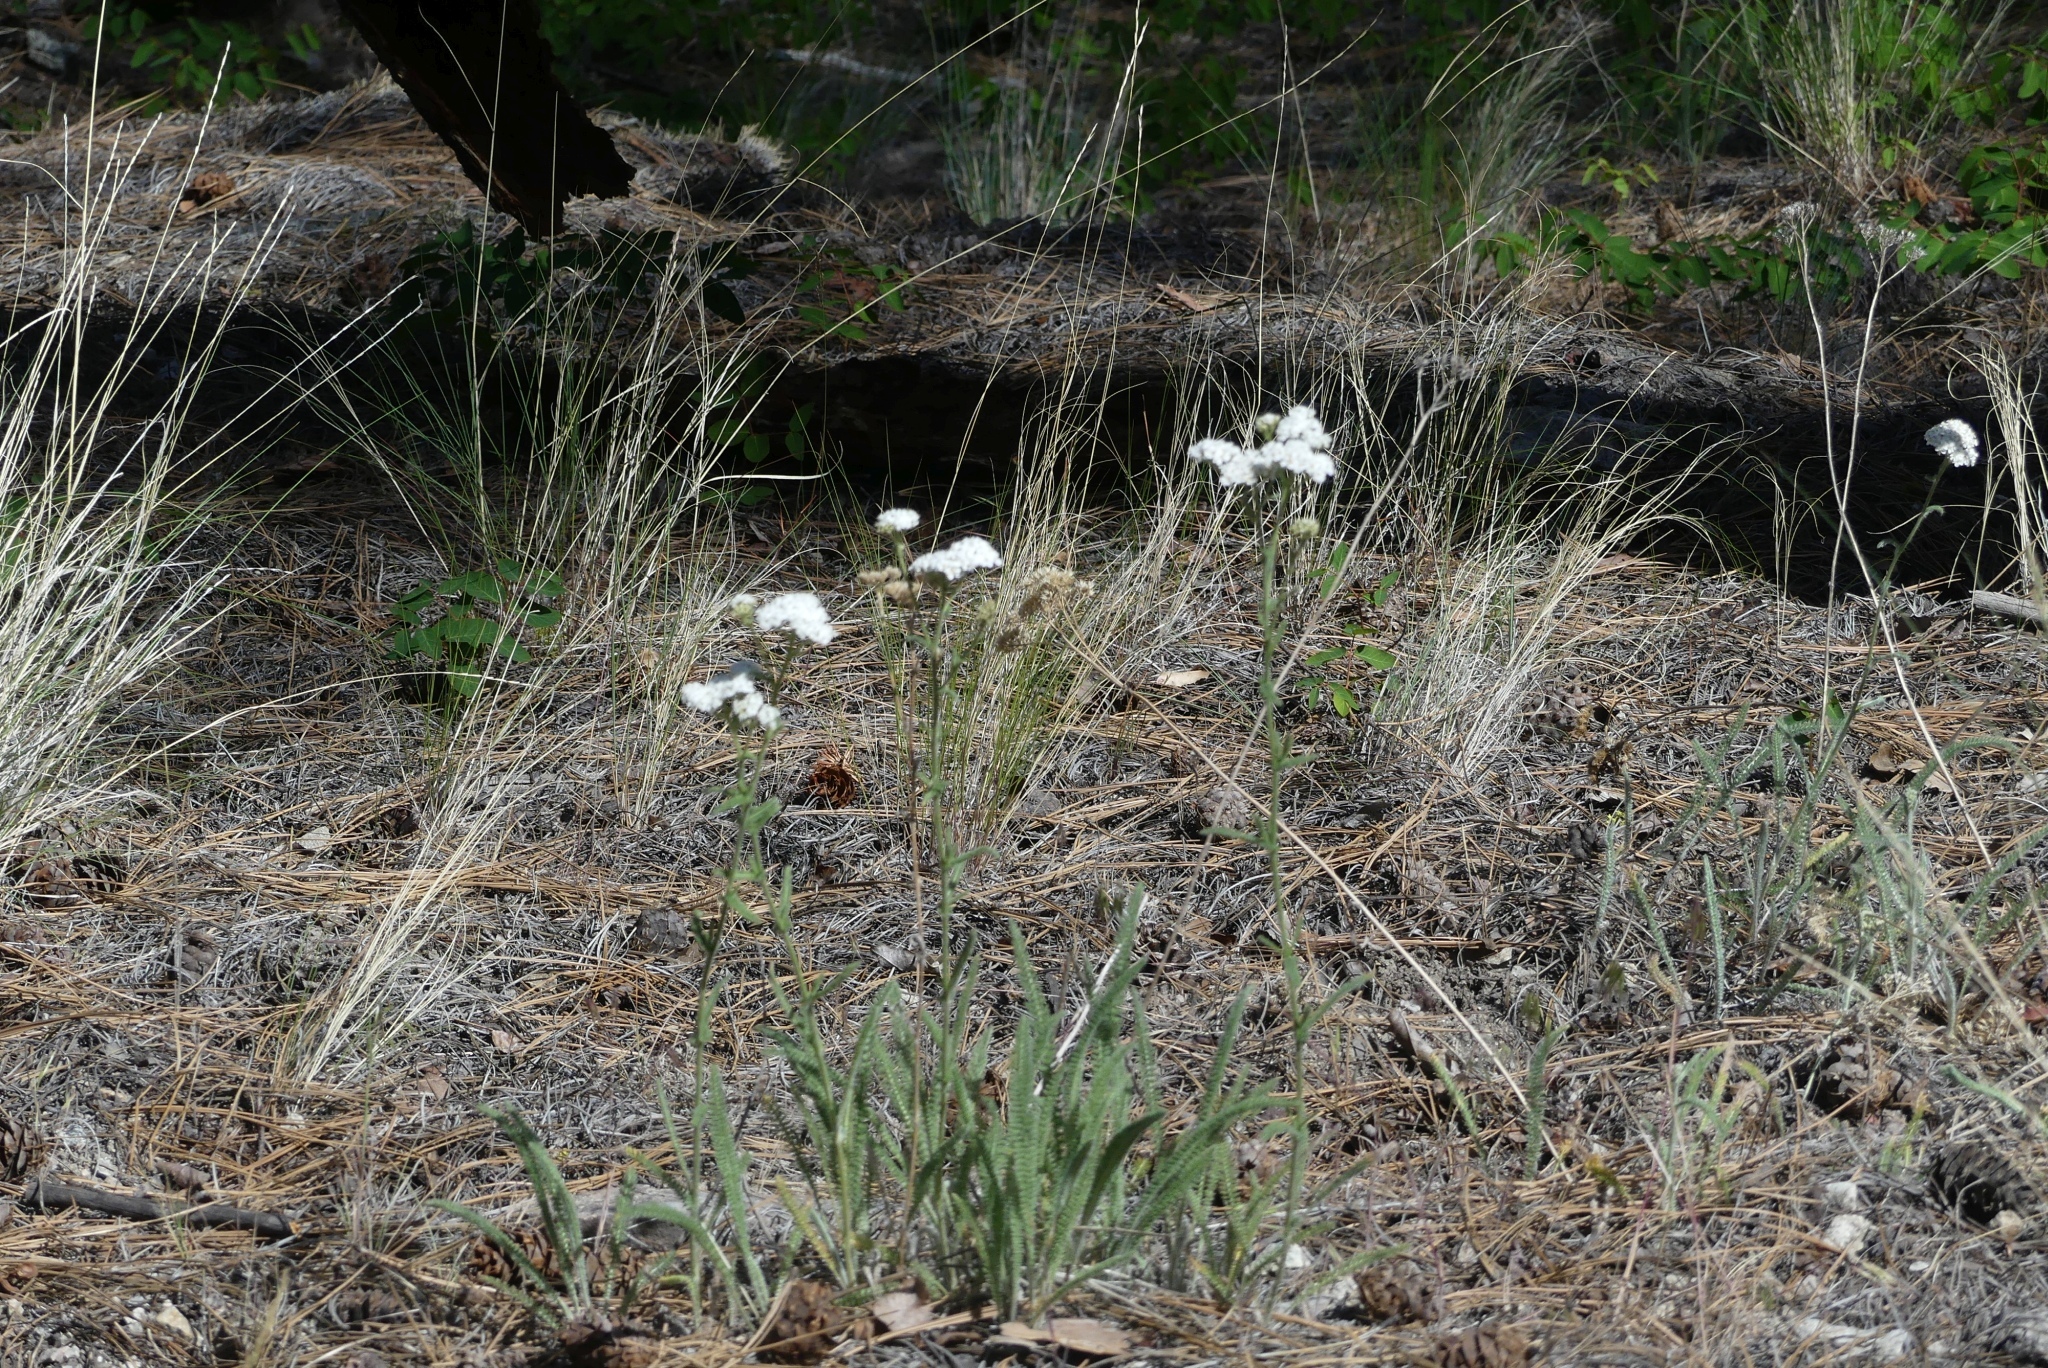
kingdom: Plantae
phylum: Tracheophyta
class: Magnoliopsida
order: Asterales
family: Asteraceae
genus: Achillea
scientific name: Achillea millefolium
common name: Yarrow
